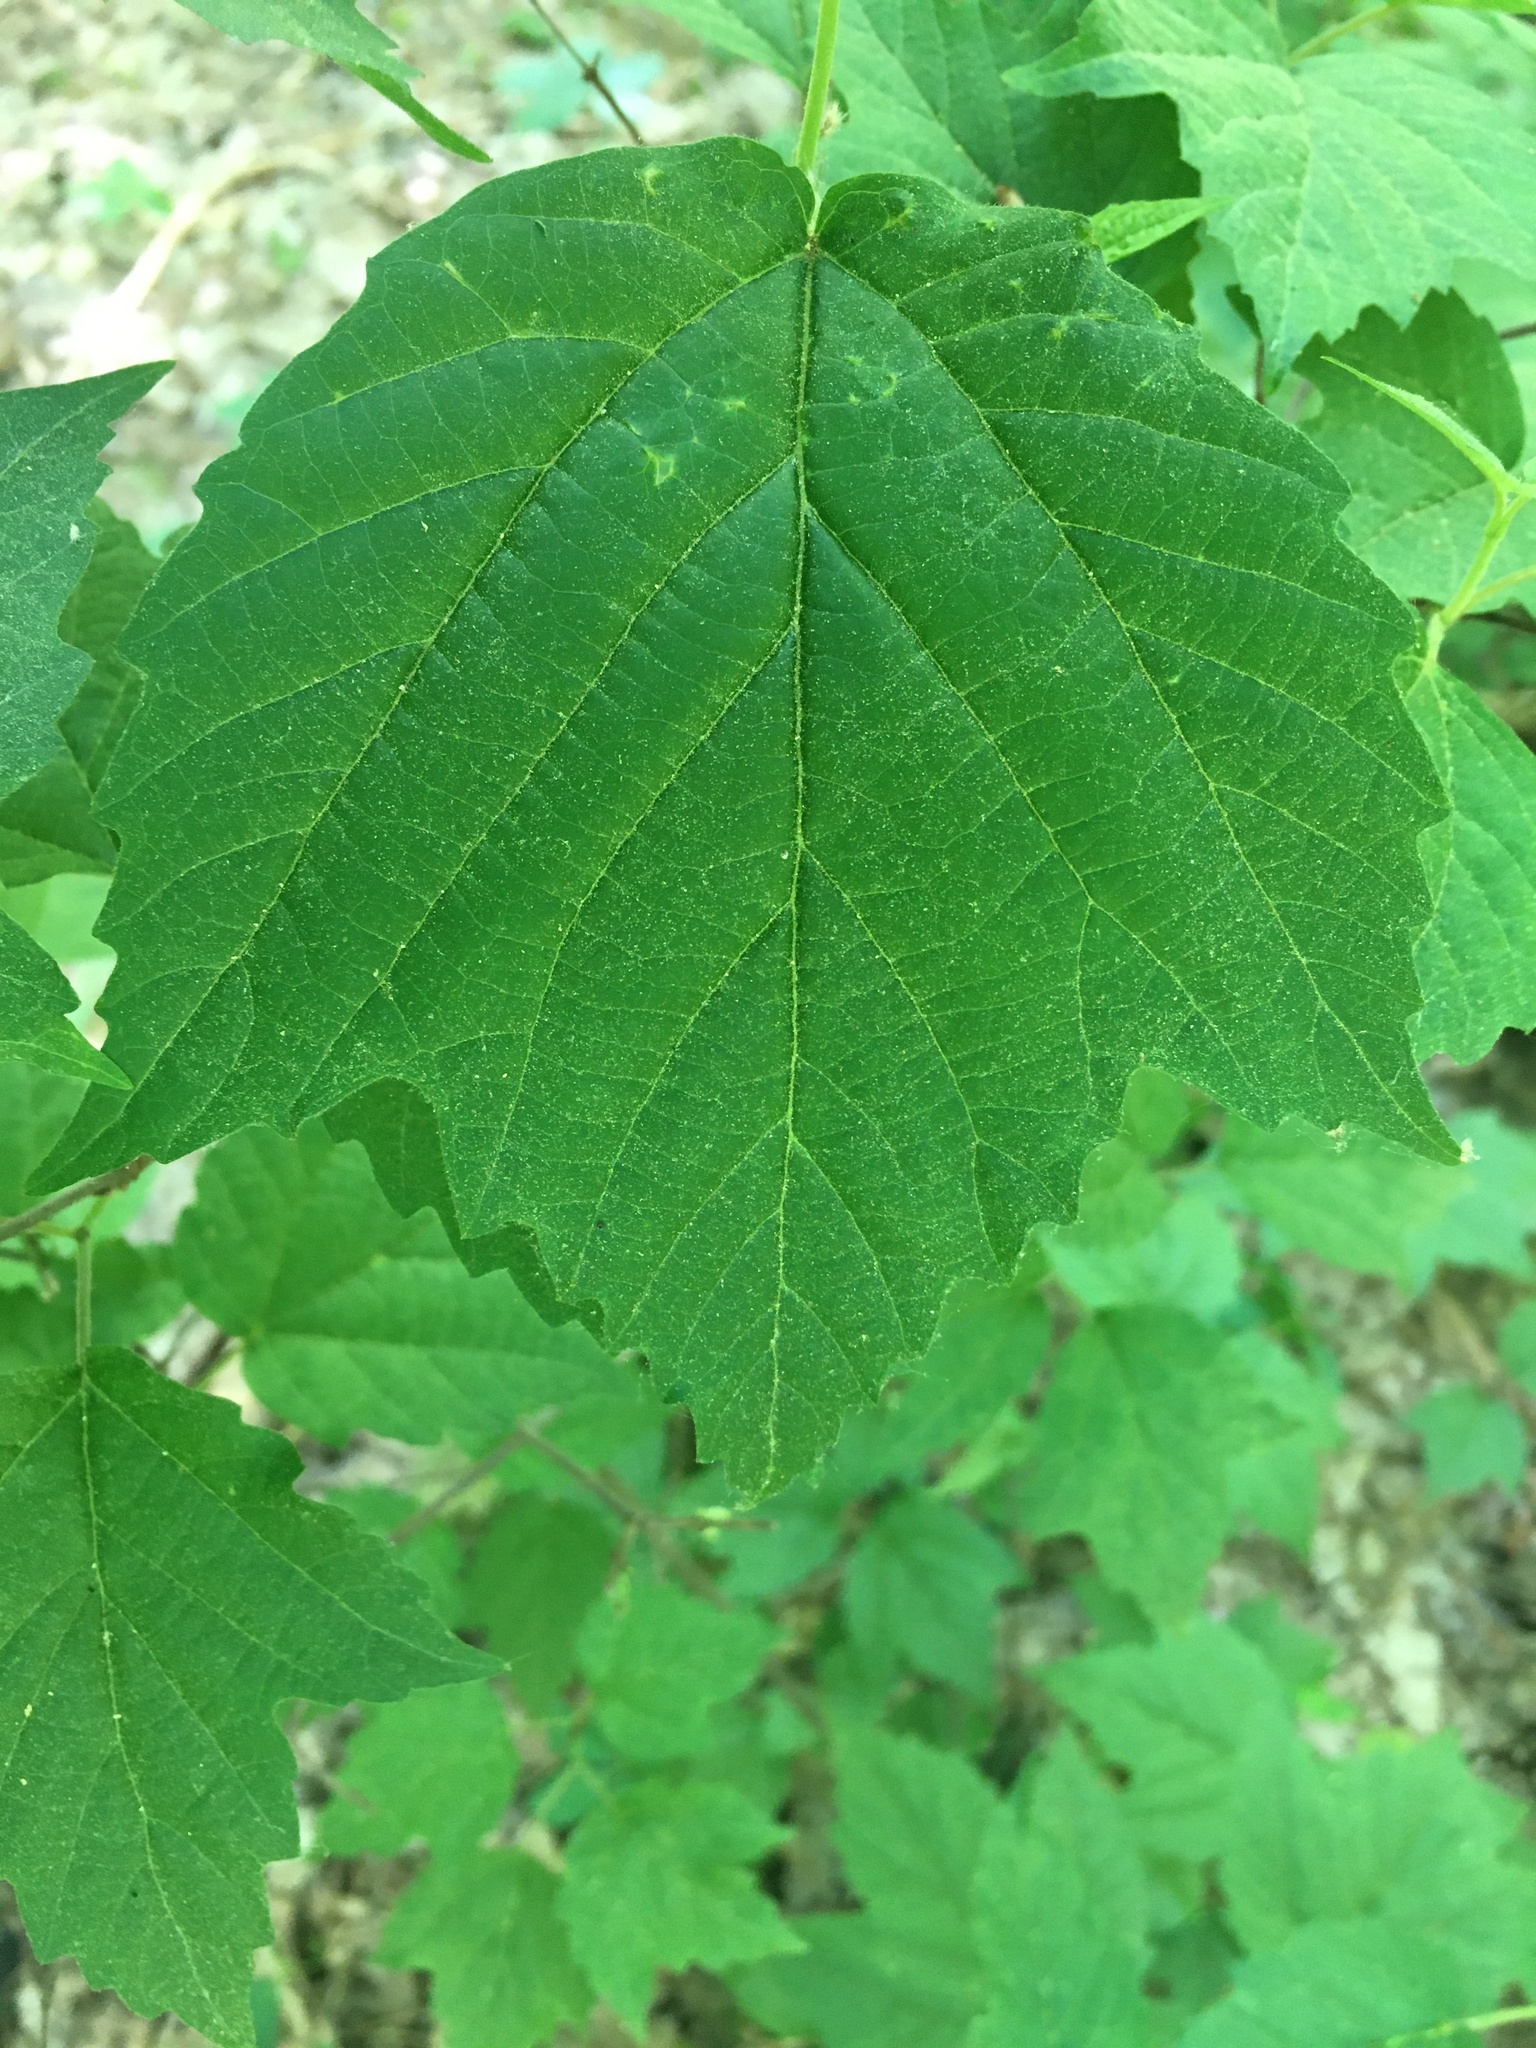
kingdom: Plantae
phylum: Tracheophyta
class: Magnoliopsida
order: Dipsacales
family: Viburnaceae
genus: Viburnum
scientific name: Viburnum acerifolium
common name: Dockmackie
